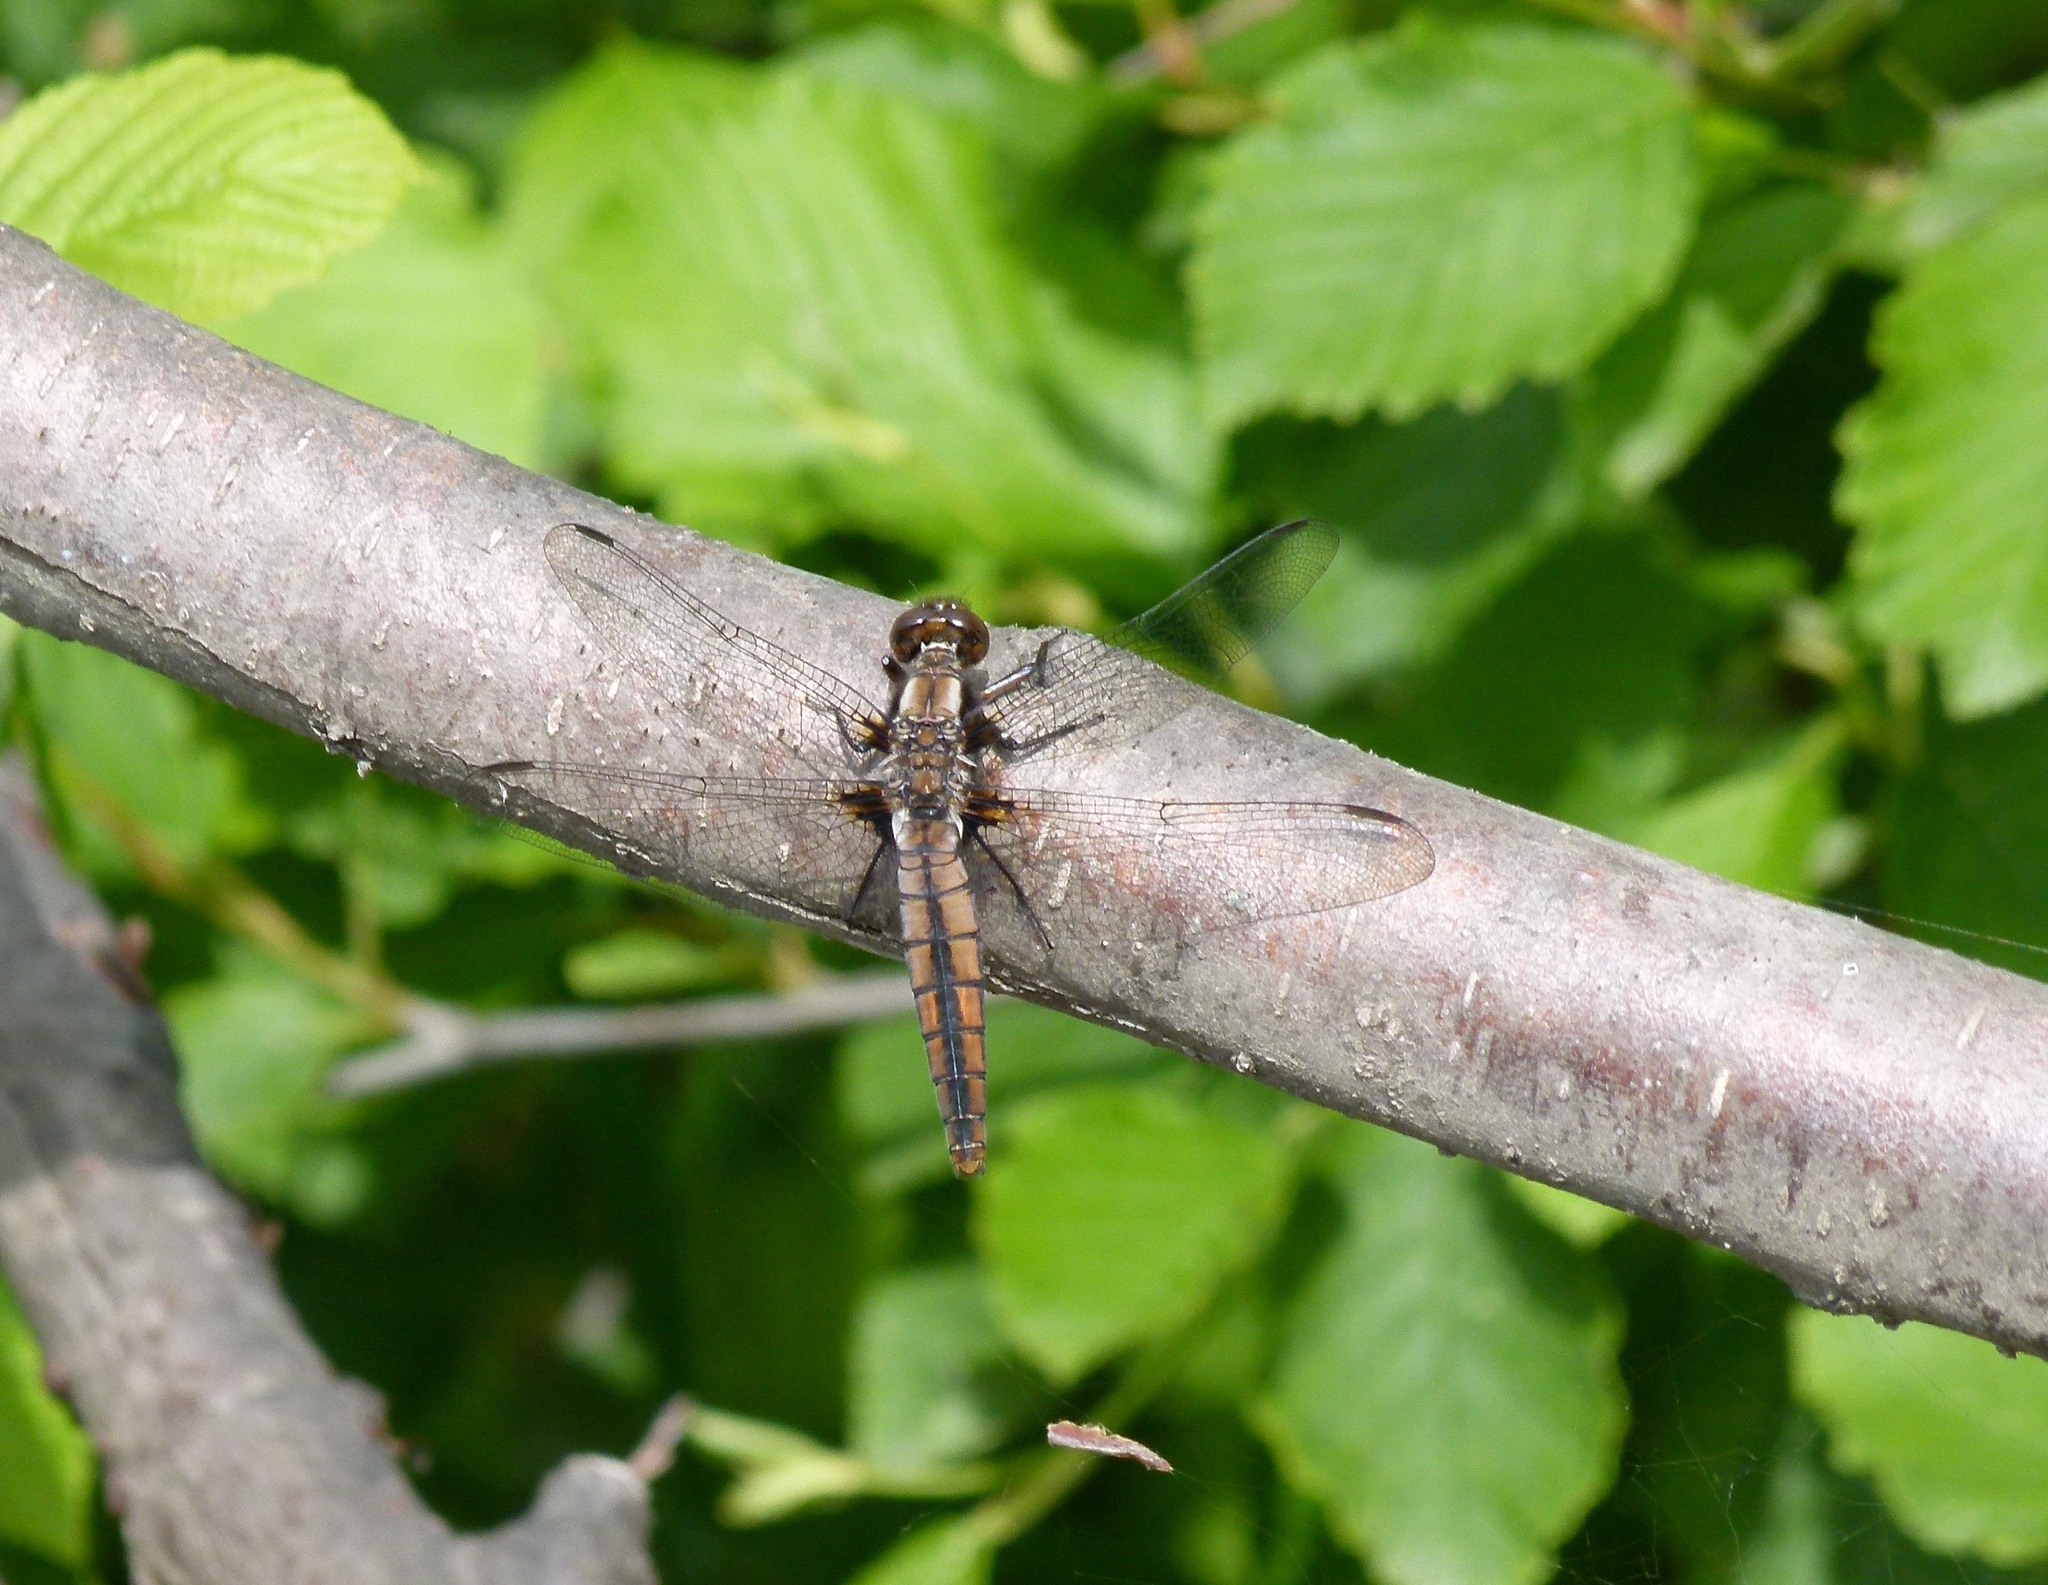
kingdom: Animalia
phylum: Arthropoda
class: Insecta
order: Odonata
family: Libellulidae
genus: Ladona
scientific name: Ladona julia
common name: Chalk-fronted corporal
